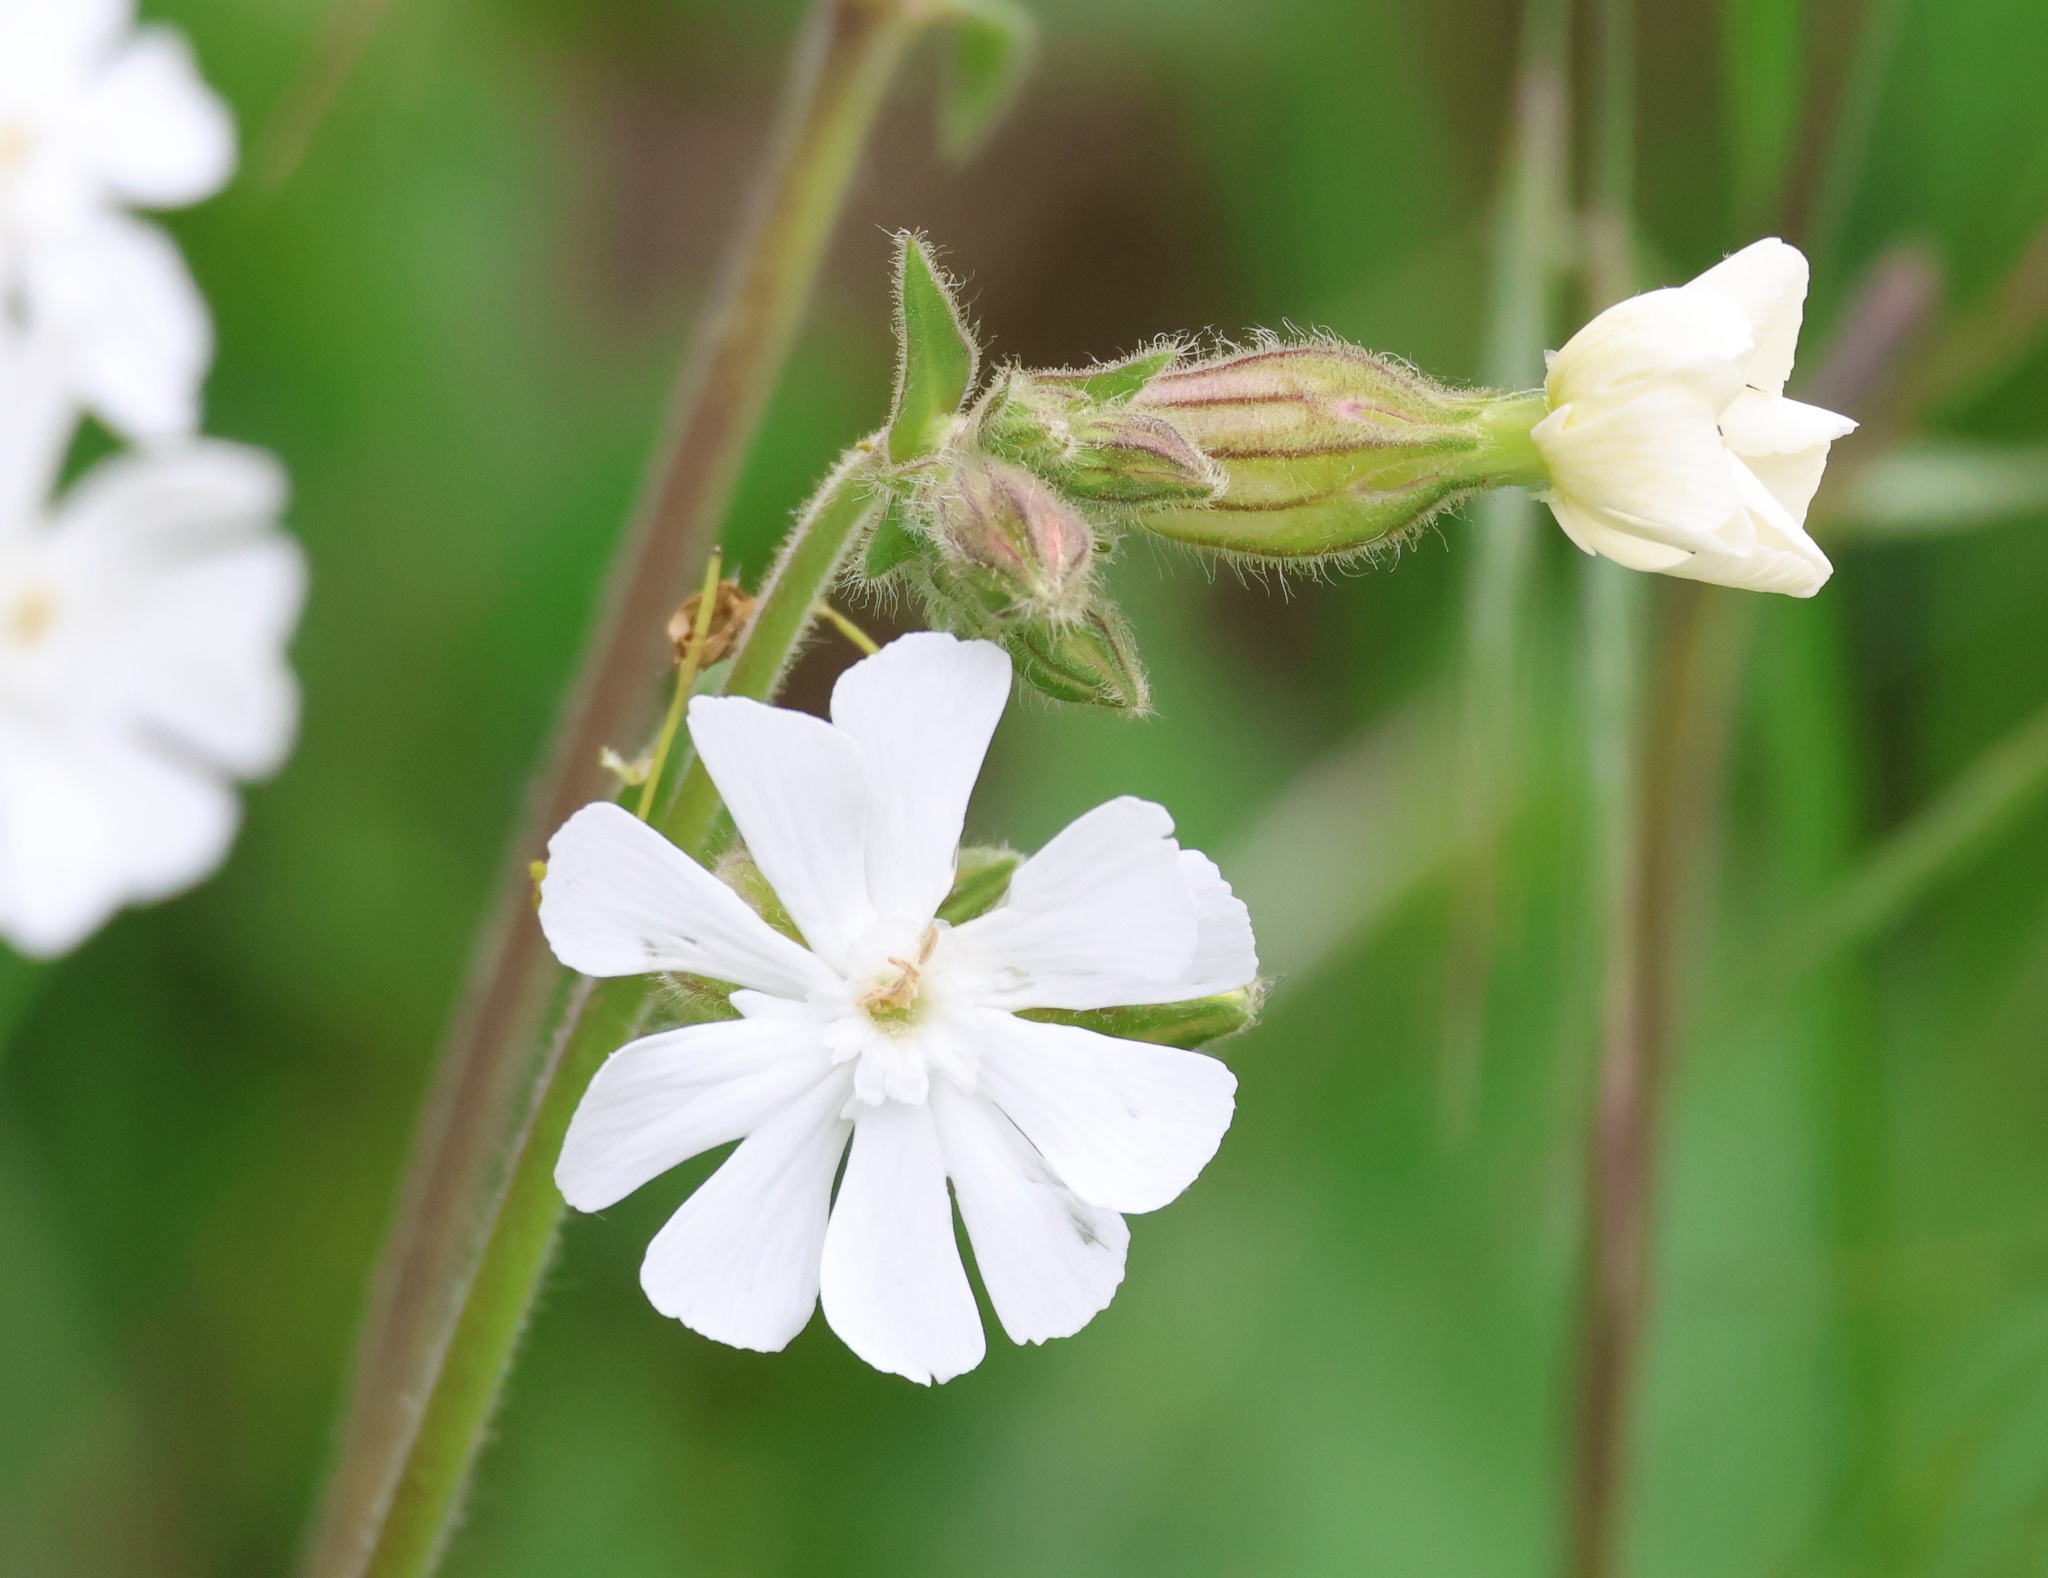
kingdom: Plantae
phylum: Tracheophyta
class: Magnoliopsida
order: Caryophyllales
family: Caryophyllaceae
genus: Silene
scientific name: Silene latifolia
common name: White campion
